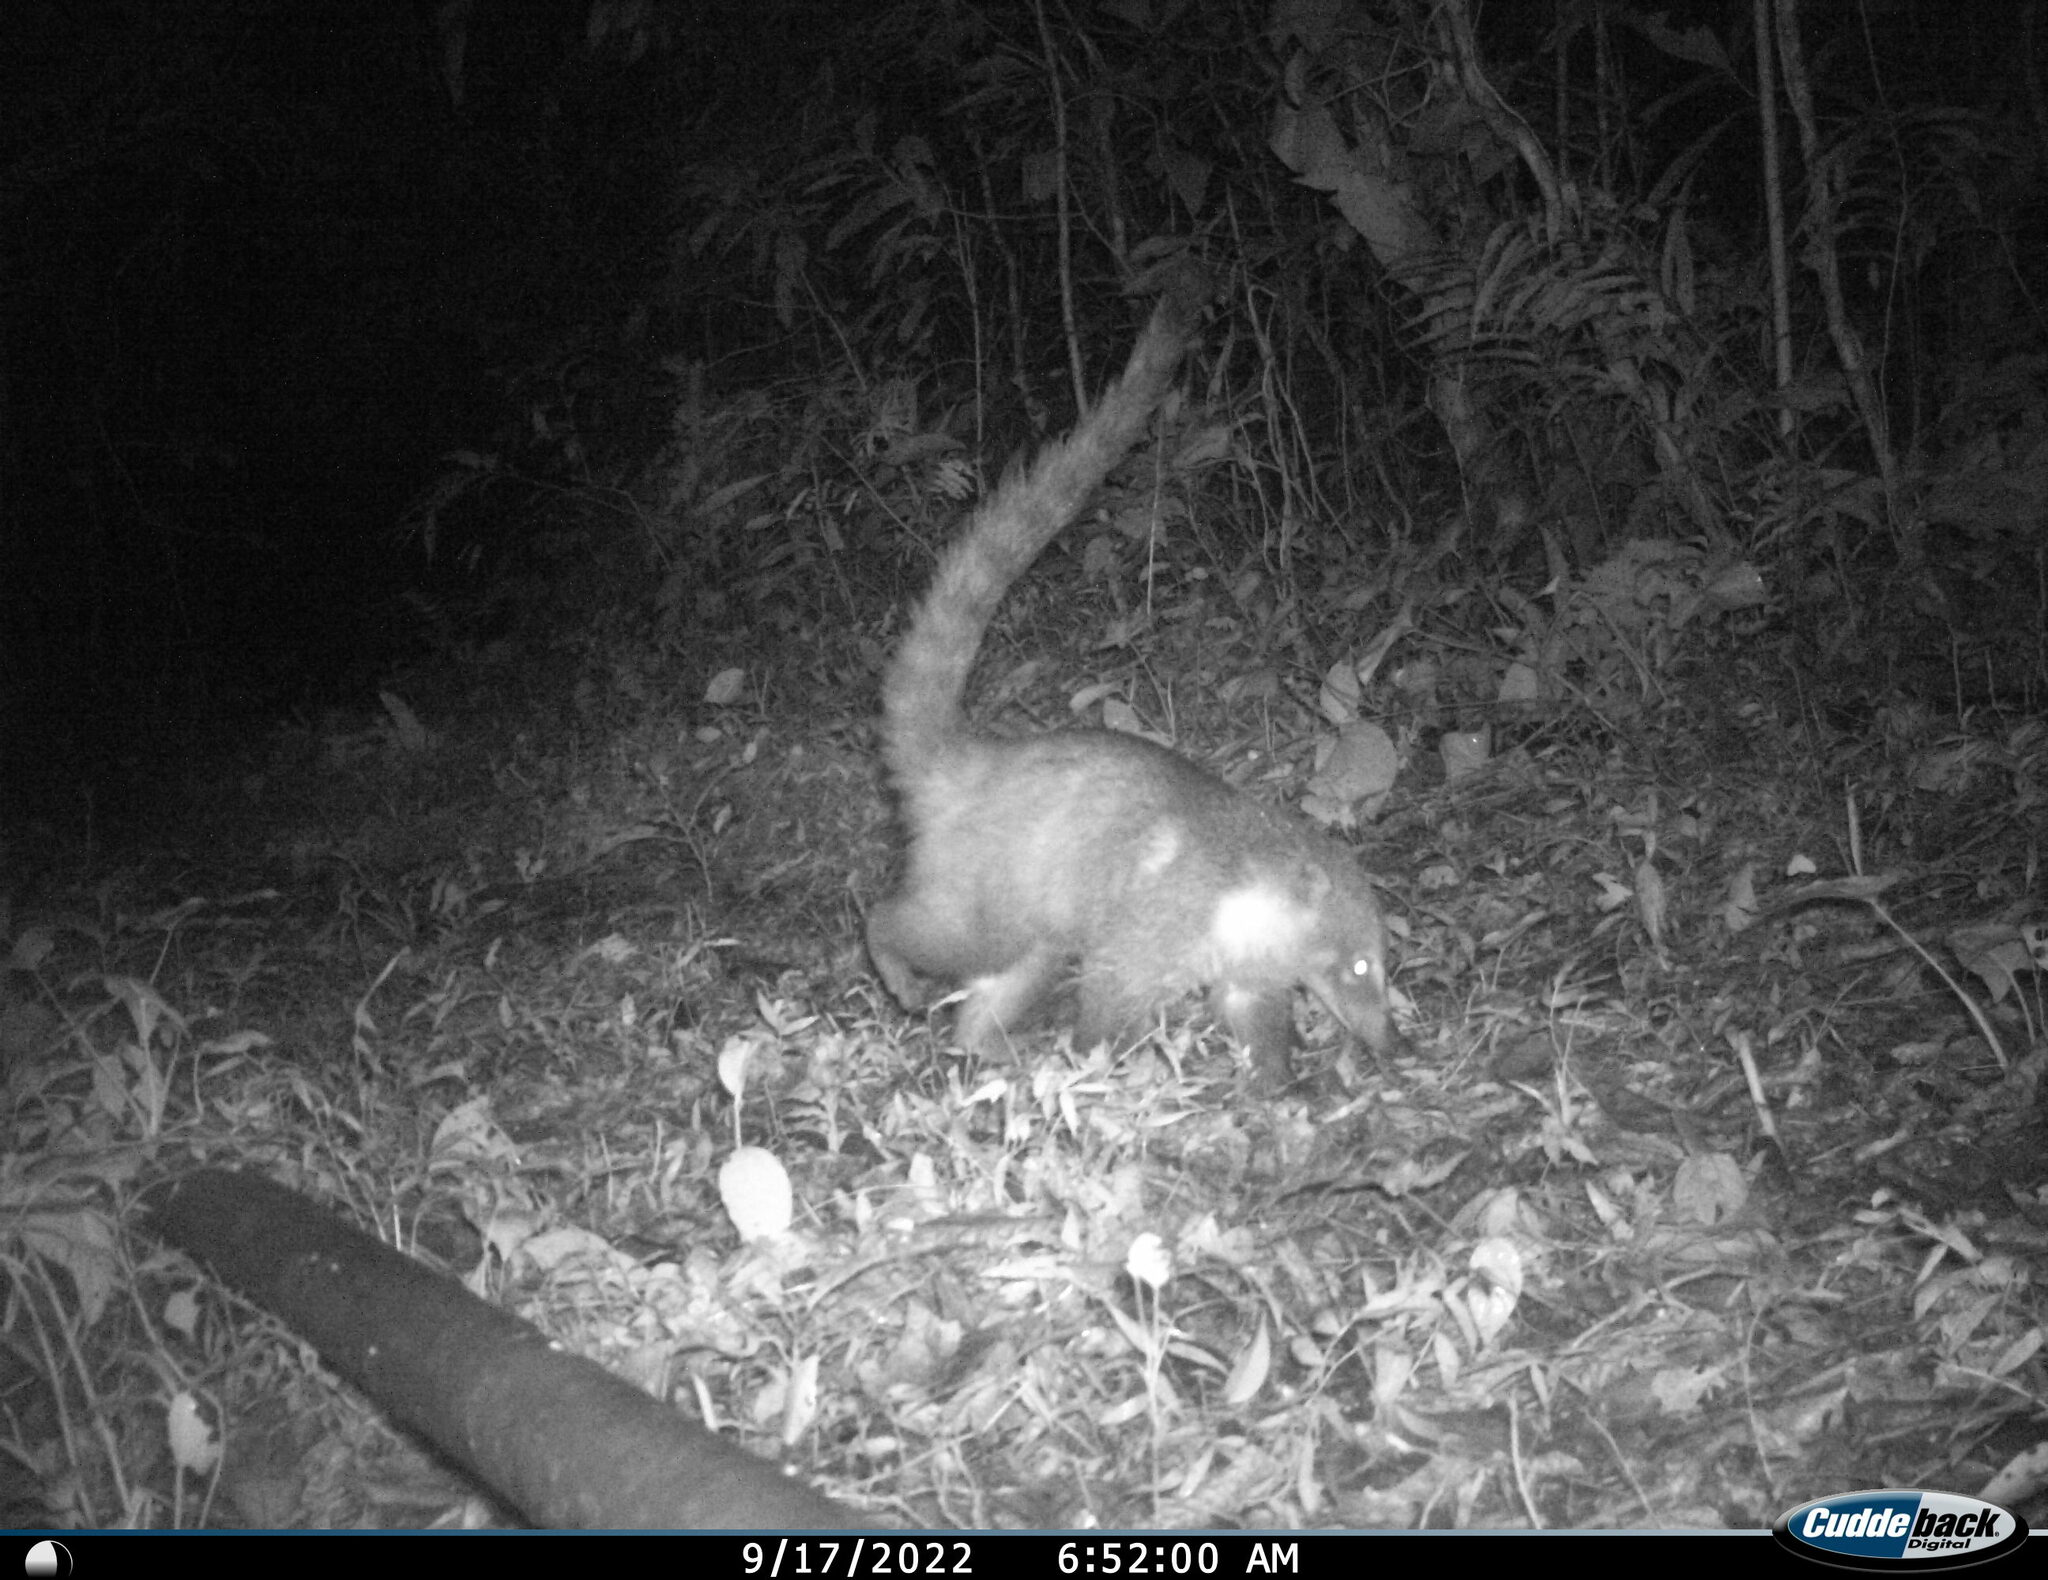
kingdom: Animalia
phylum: Chordata
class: Mammalia
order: Carnivora
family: Procyonidae
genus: Nasua
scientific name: Nasua narica
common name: White-nosed coati
